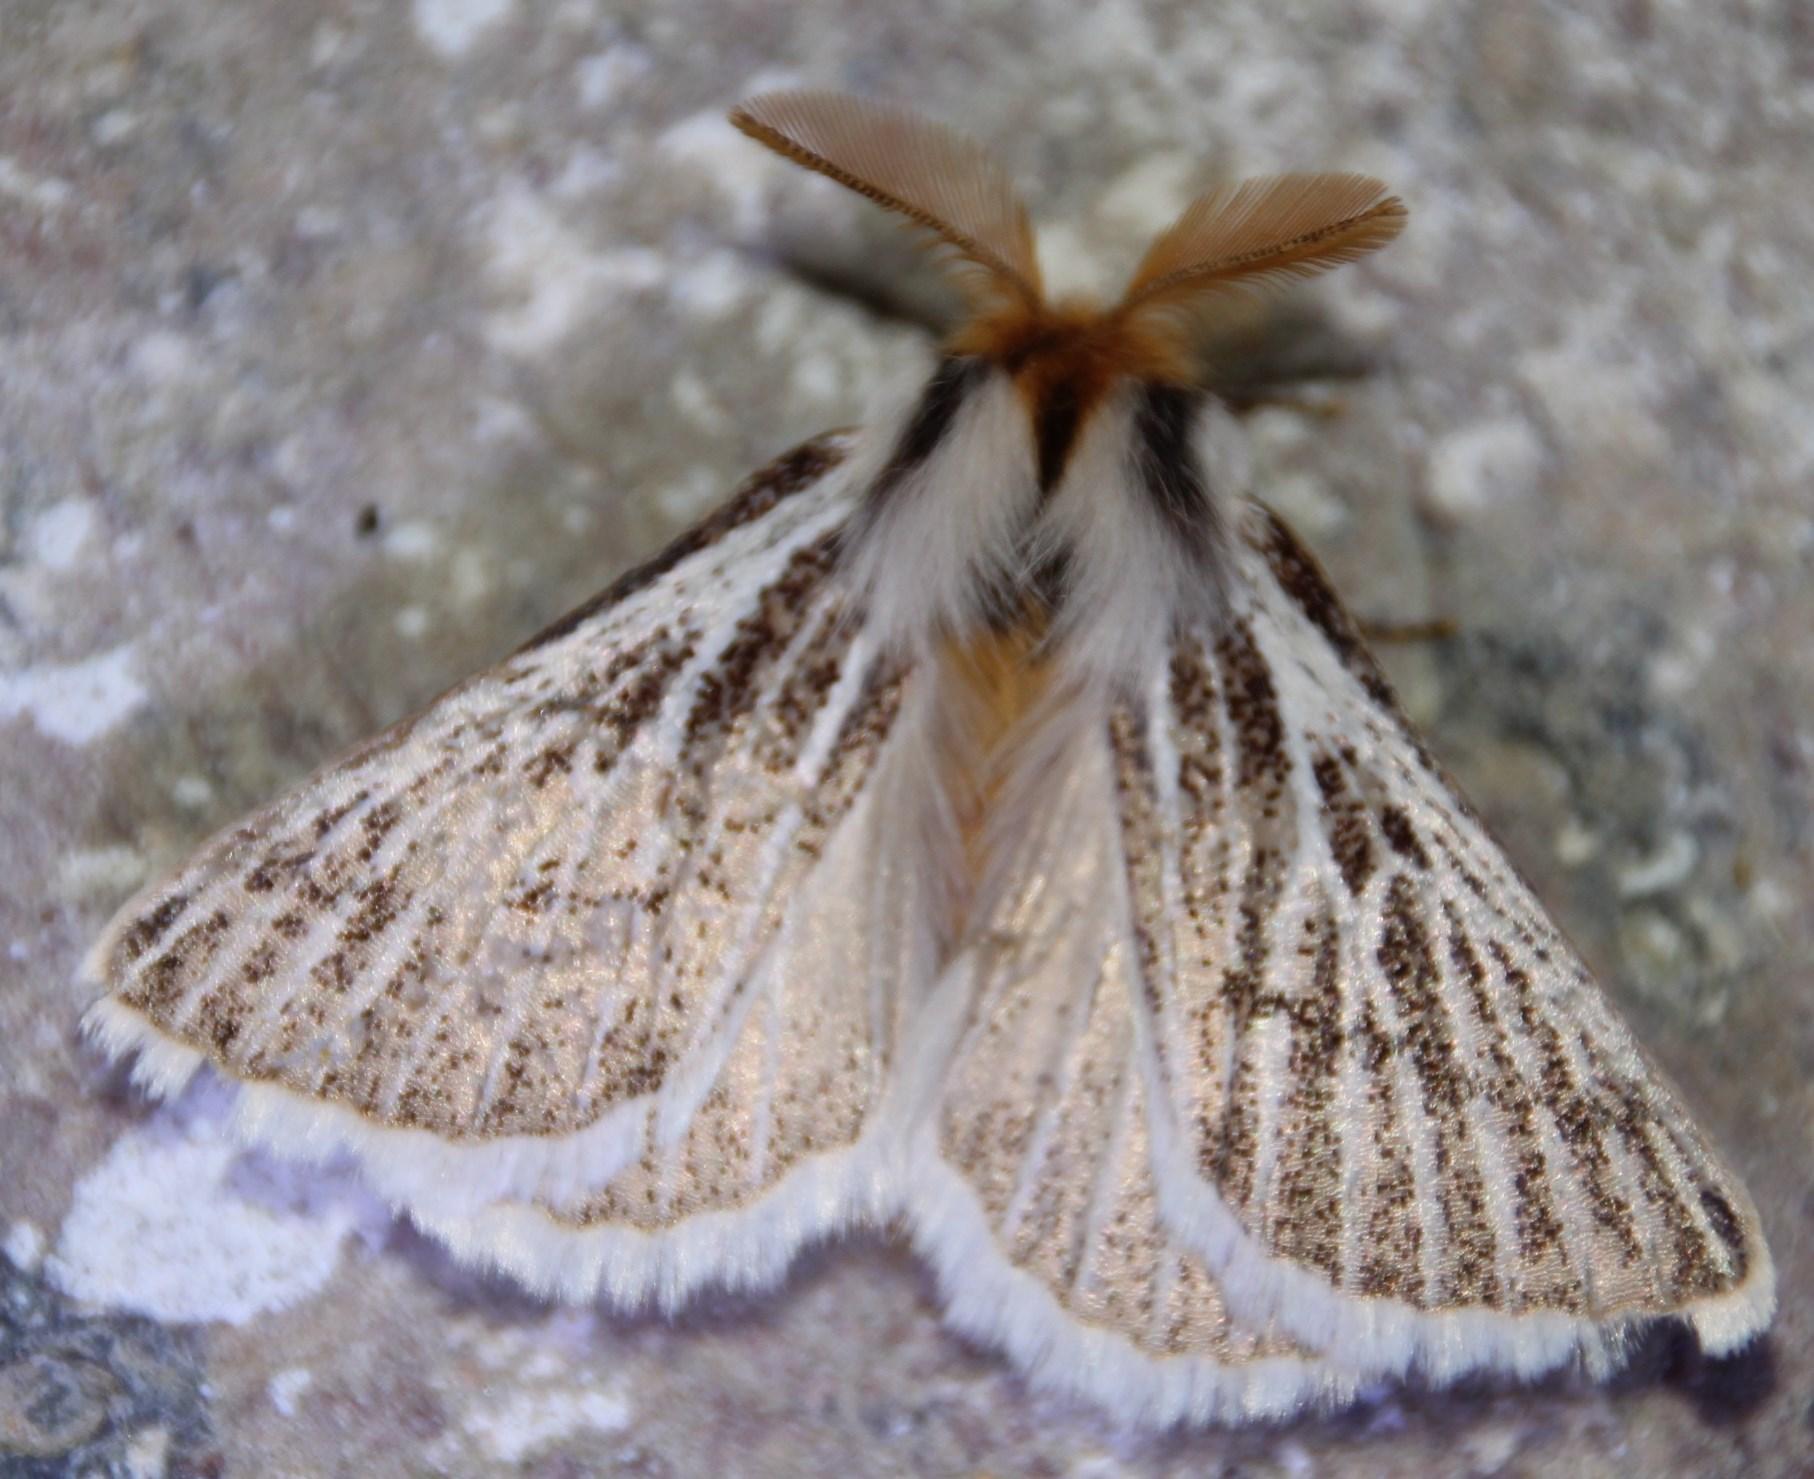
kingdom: Animalia
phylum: Arthropoda
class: Insecta
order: Lepidoptera
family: Eupterotidae
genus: Rhabdosia
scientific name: Rhabdosia vaninia
